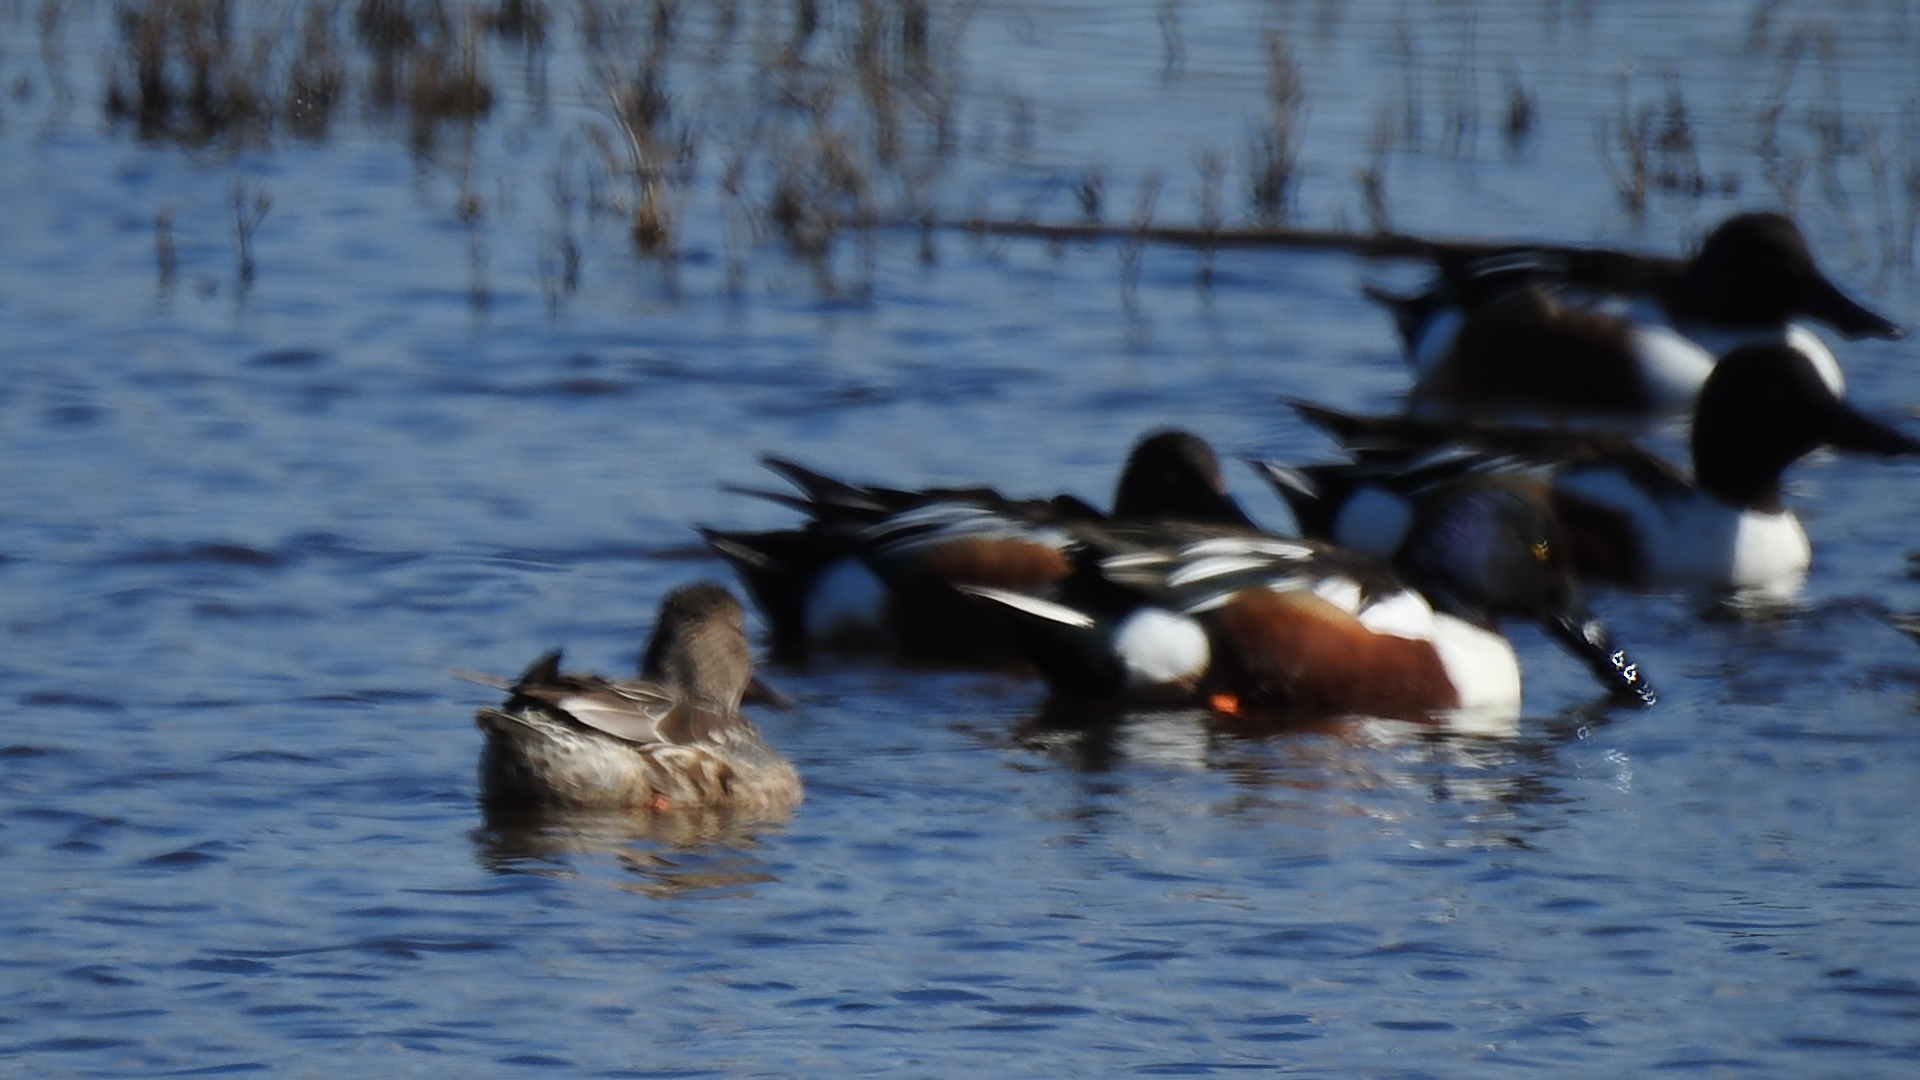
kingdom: Animalia
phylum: Chordata
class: Aves
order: Anseriformes
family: Anatidae
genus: Spatula
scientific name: Spatula clypeata
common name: Northern shoveler
